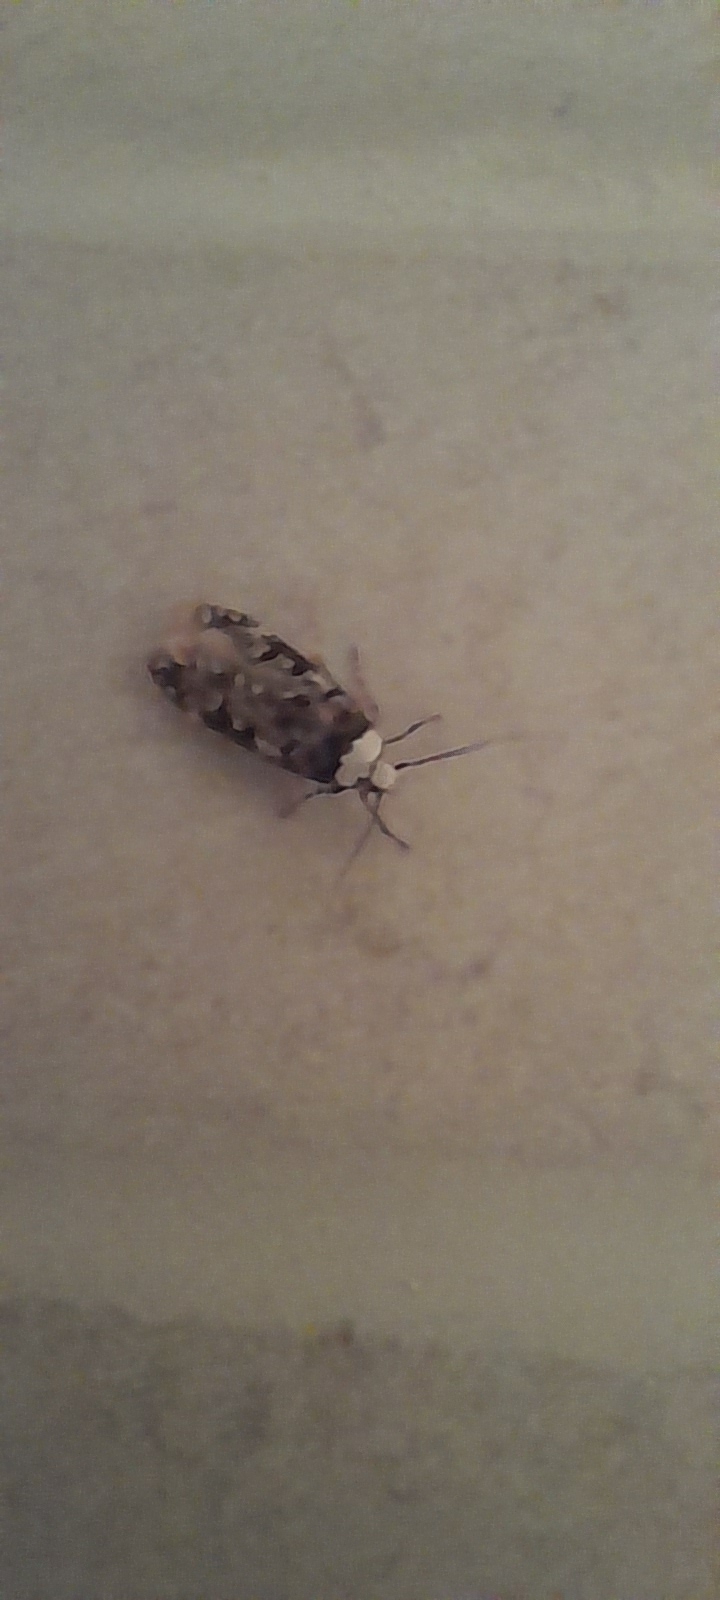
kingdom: Animalia
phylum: Arthropoda
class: Insecta
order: Lepidoptera
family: Oecophoridae
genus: Endrosis
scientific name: Endrosis sarcitrella
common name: White-shouldered house moth
